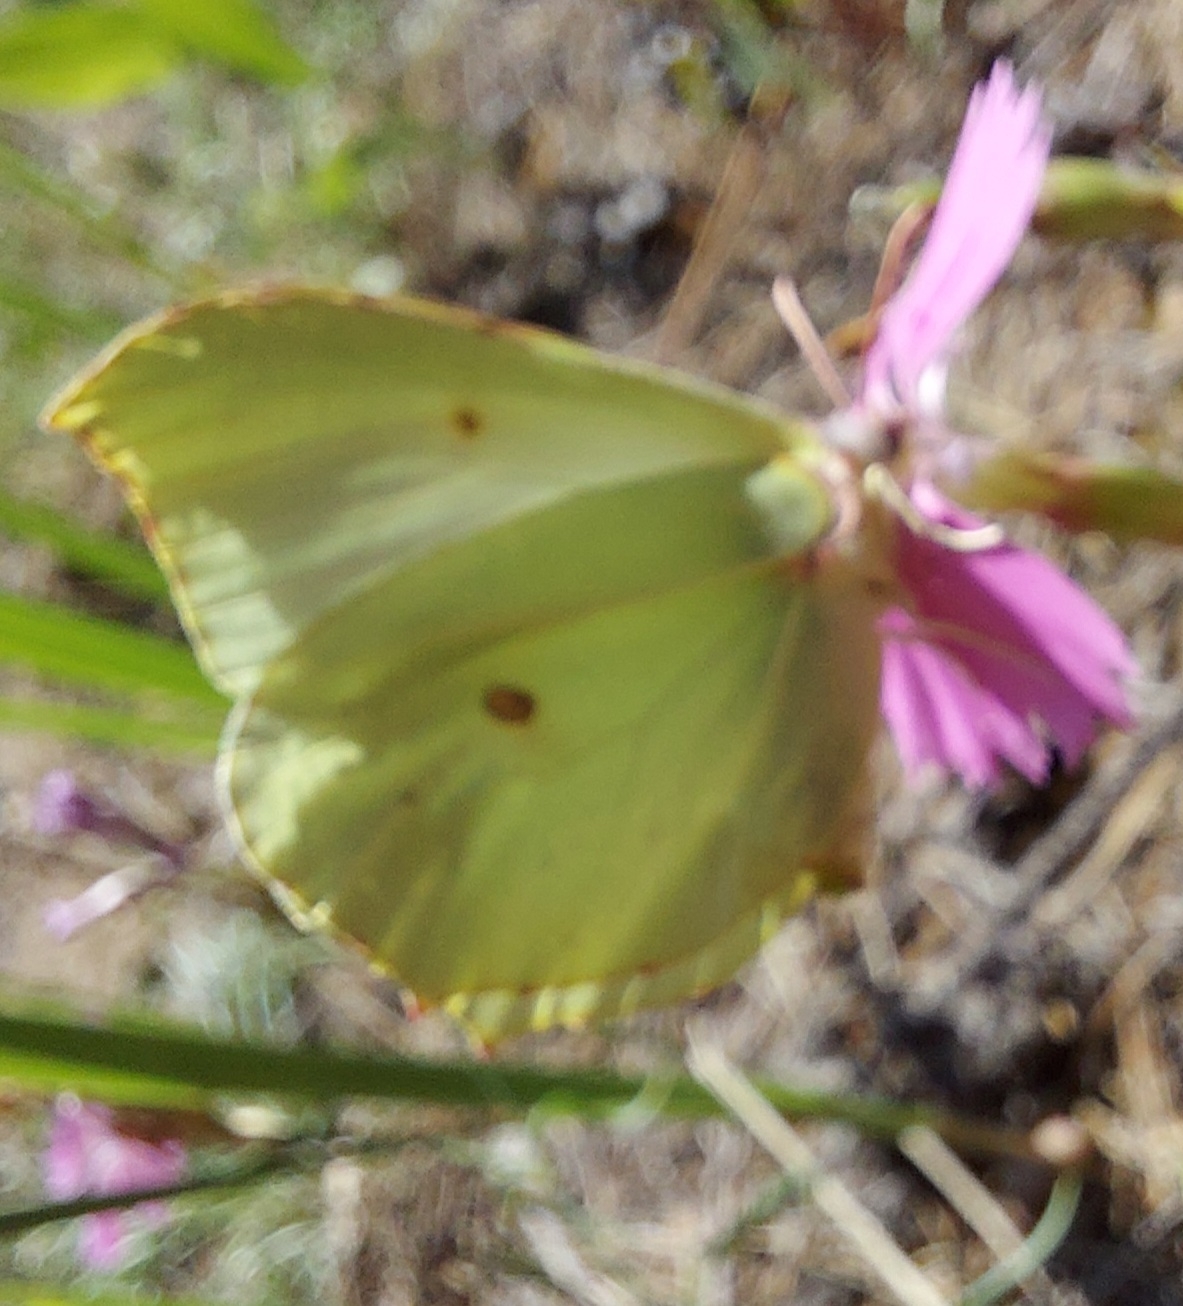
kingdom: Animalia
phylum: Arthropoda
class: Insecta
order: Lepidoptera
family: Pieridae
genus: Gonepteryx
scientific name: Gonepteryx rhamni
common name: Brimstone
